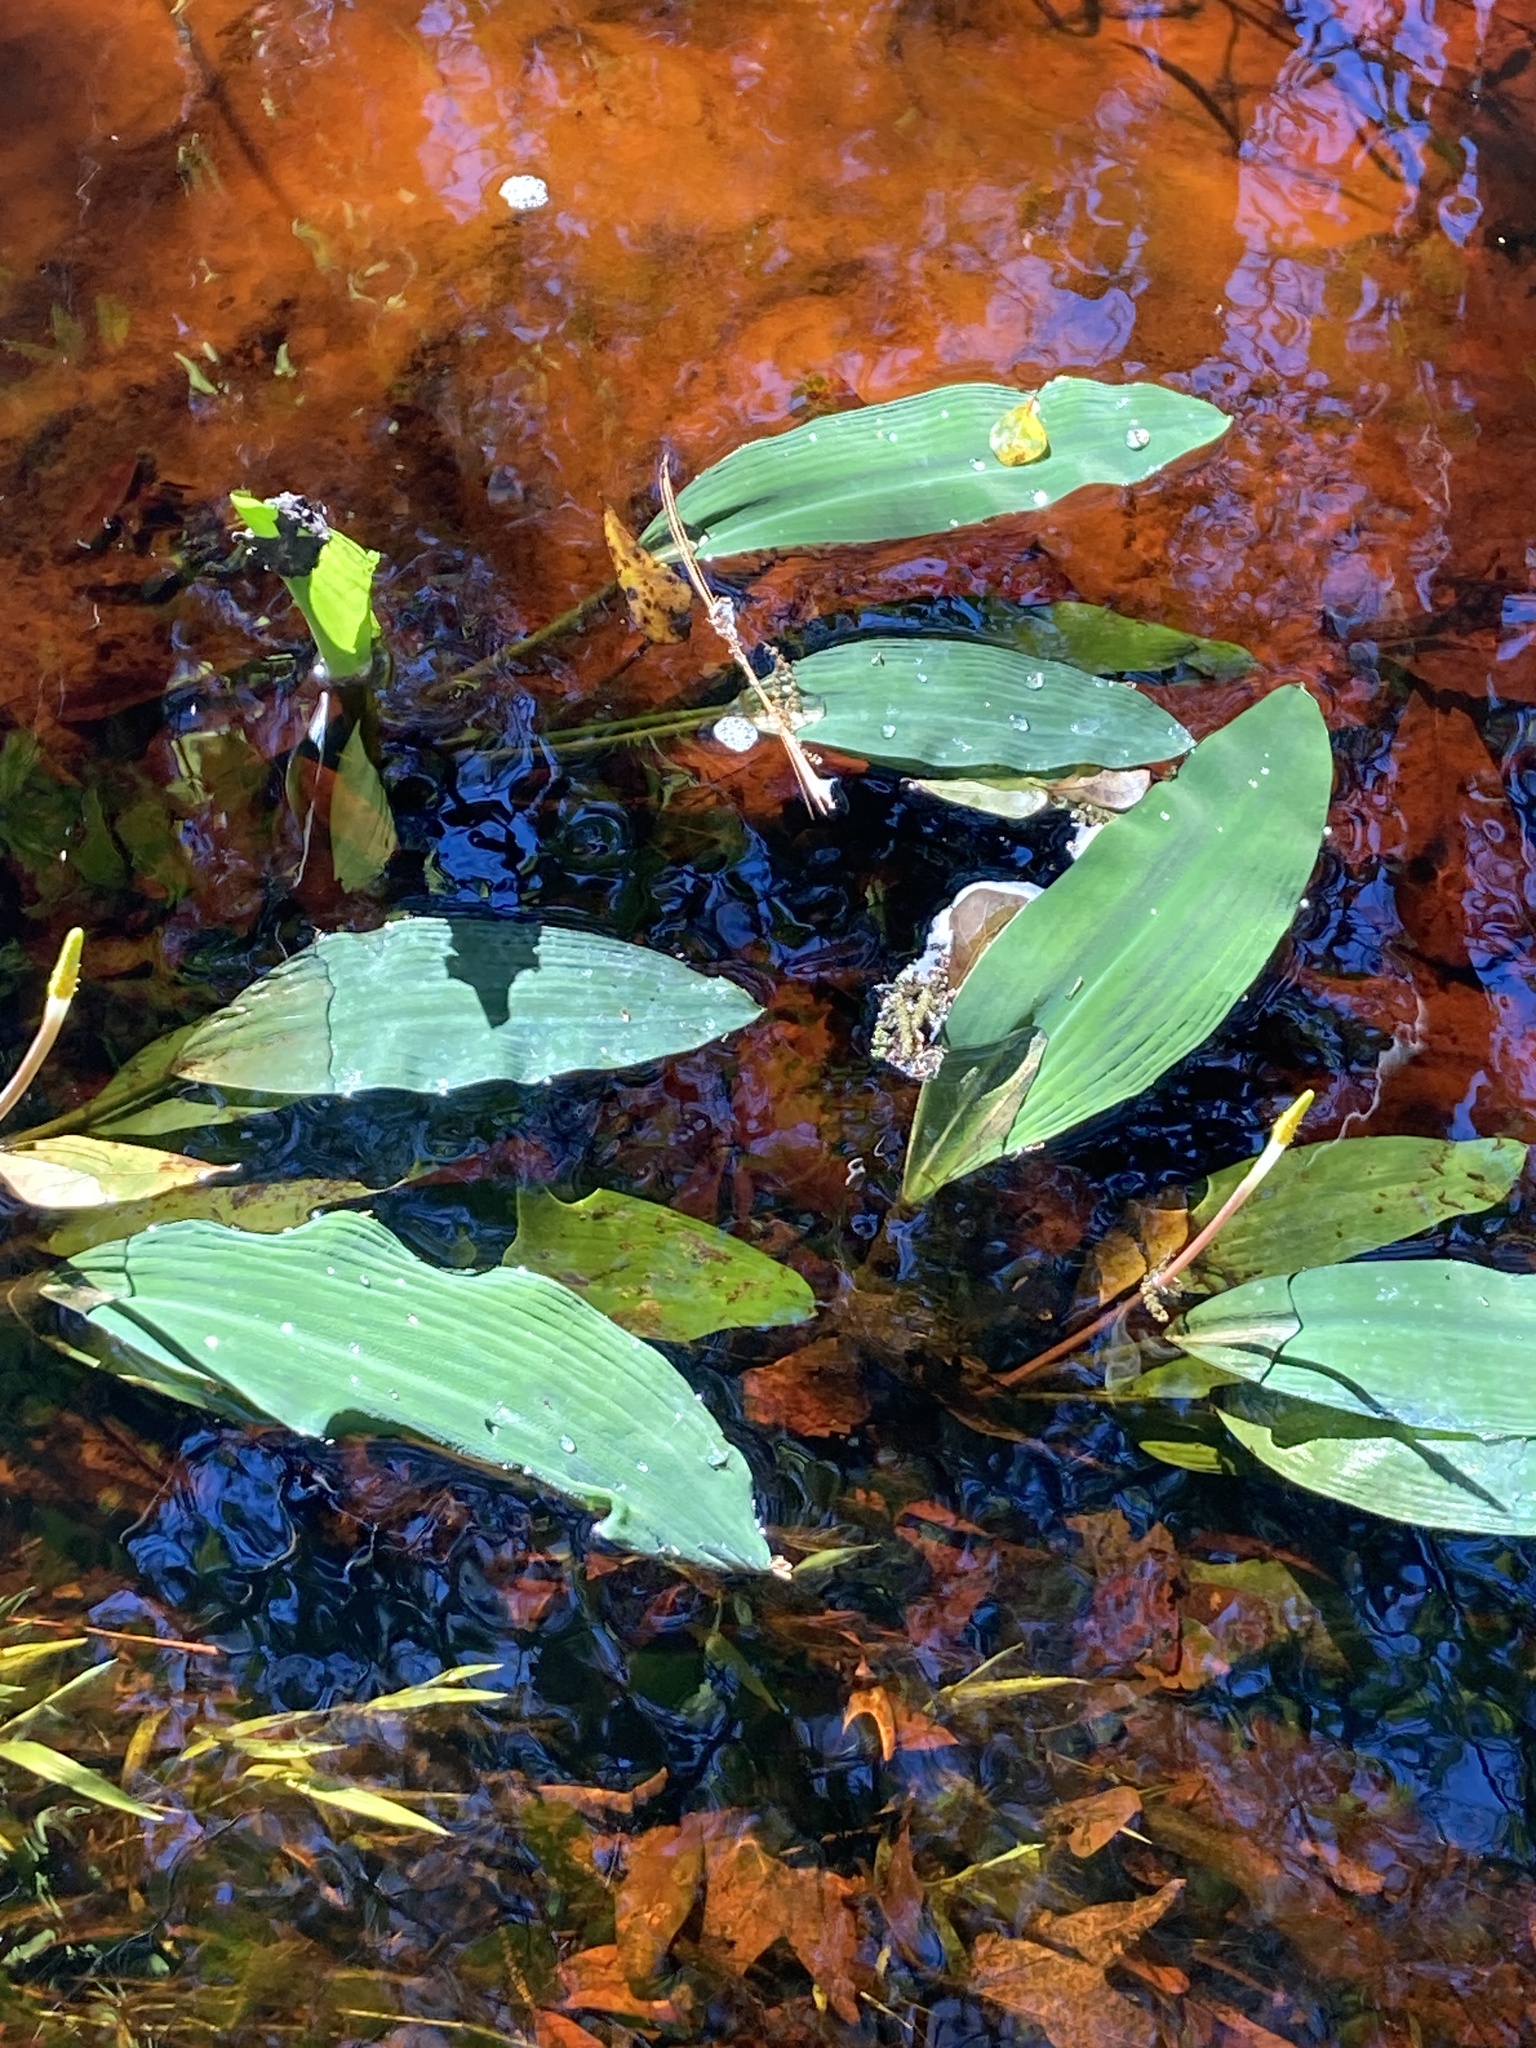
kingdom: Plantae
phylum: Tracheophyta
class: Liliopsida
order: Alismatales
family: Araceae
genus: Orontium
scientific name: Orontium aquaticum
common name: Golden-club
